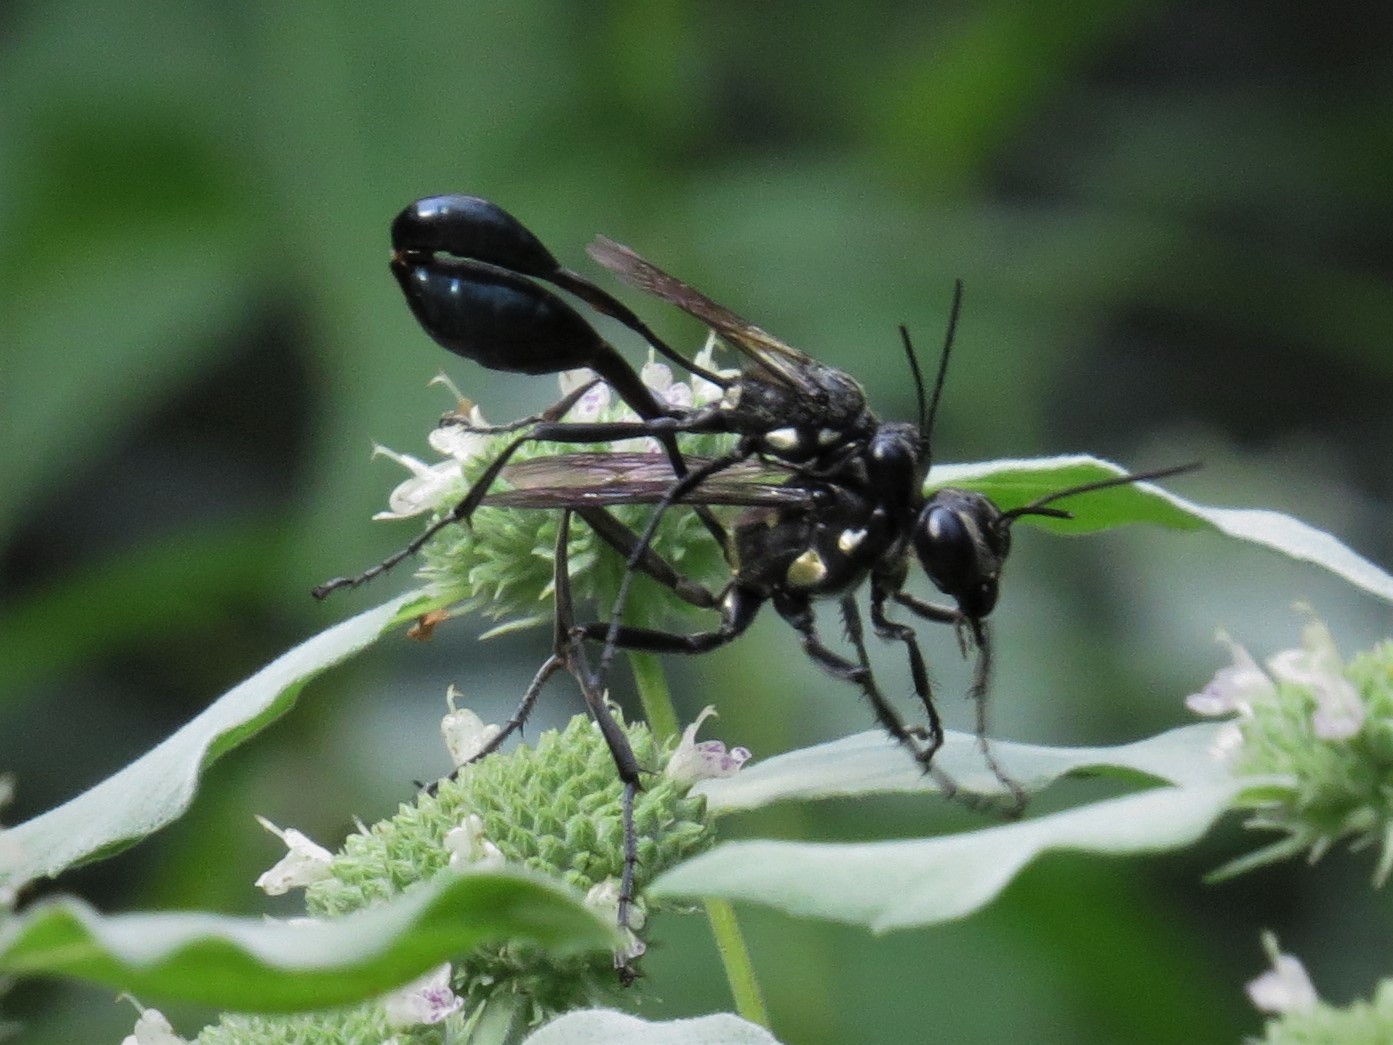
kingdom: Animalia
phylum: Arthropoda
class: Insecta
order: Hymenoptera
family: Sphecidae
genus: Eremnophila
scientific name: Eremnophila aureonotata
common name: Gold-marked thread-waisted wasp
